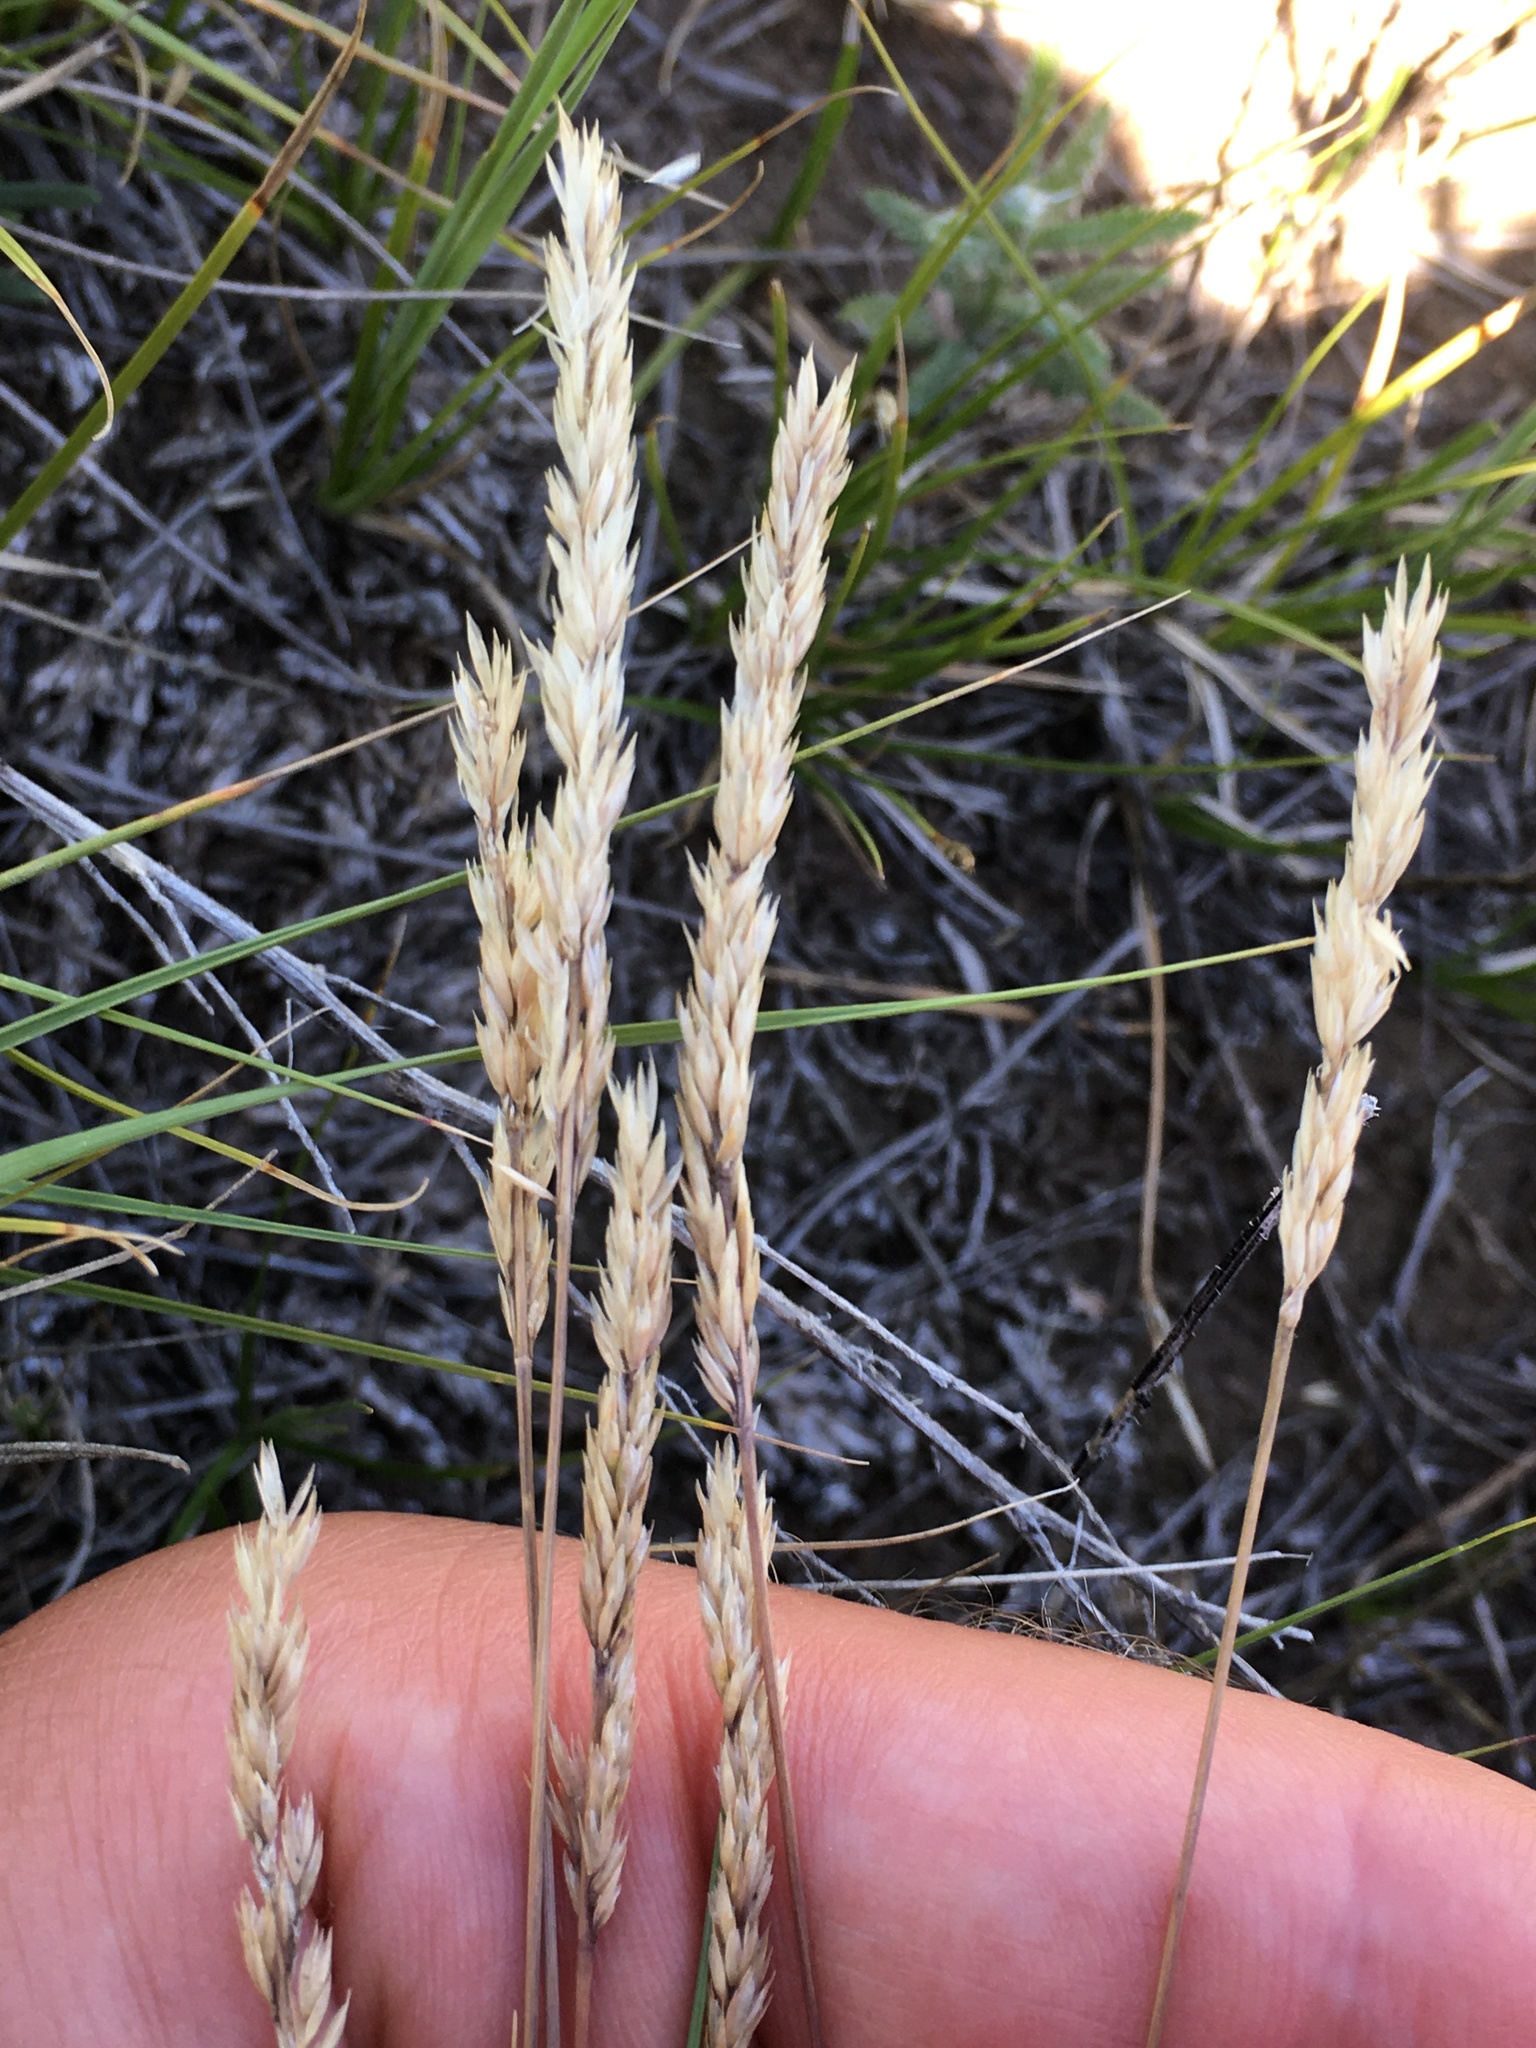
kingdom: Plantae
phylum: Tracheophyta
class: Liliopsida
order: Poales
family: Poaceae
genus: Koeleria
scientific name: Koeleria macrantha
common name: Crested hair-grass
